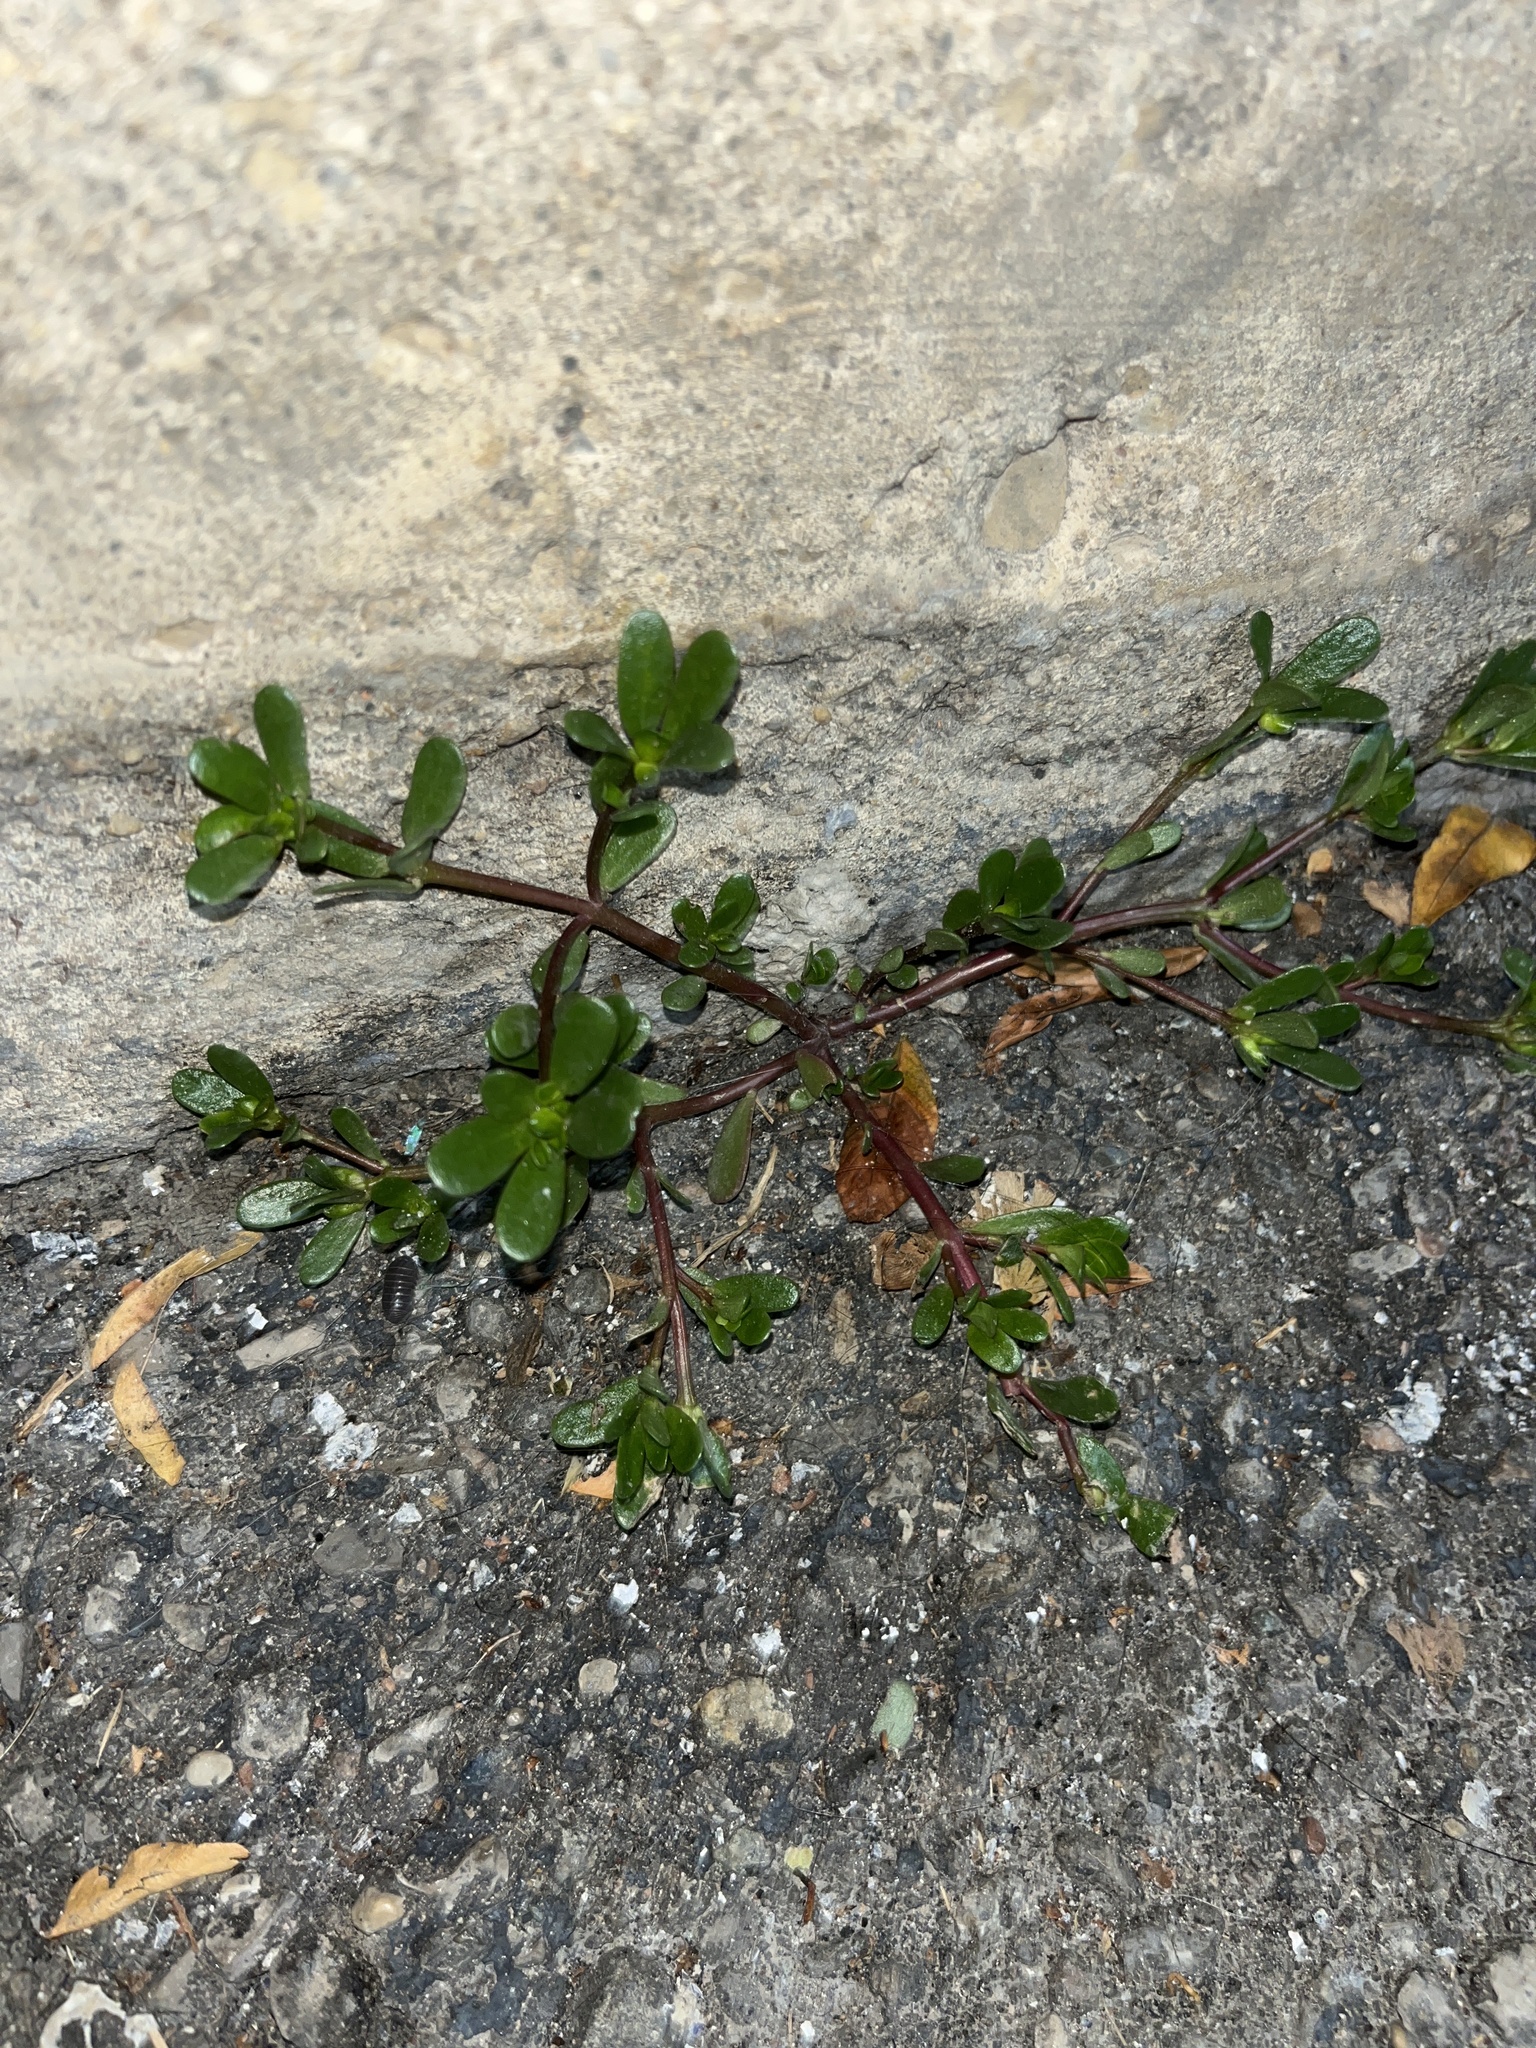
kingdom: Plantae
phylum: Tracheophyta
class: Magnoliopsida
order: Caryophyllales
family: Portulacaceae
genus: Portulaca
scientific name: Portulaca oleracea
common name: Common purslane
